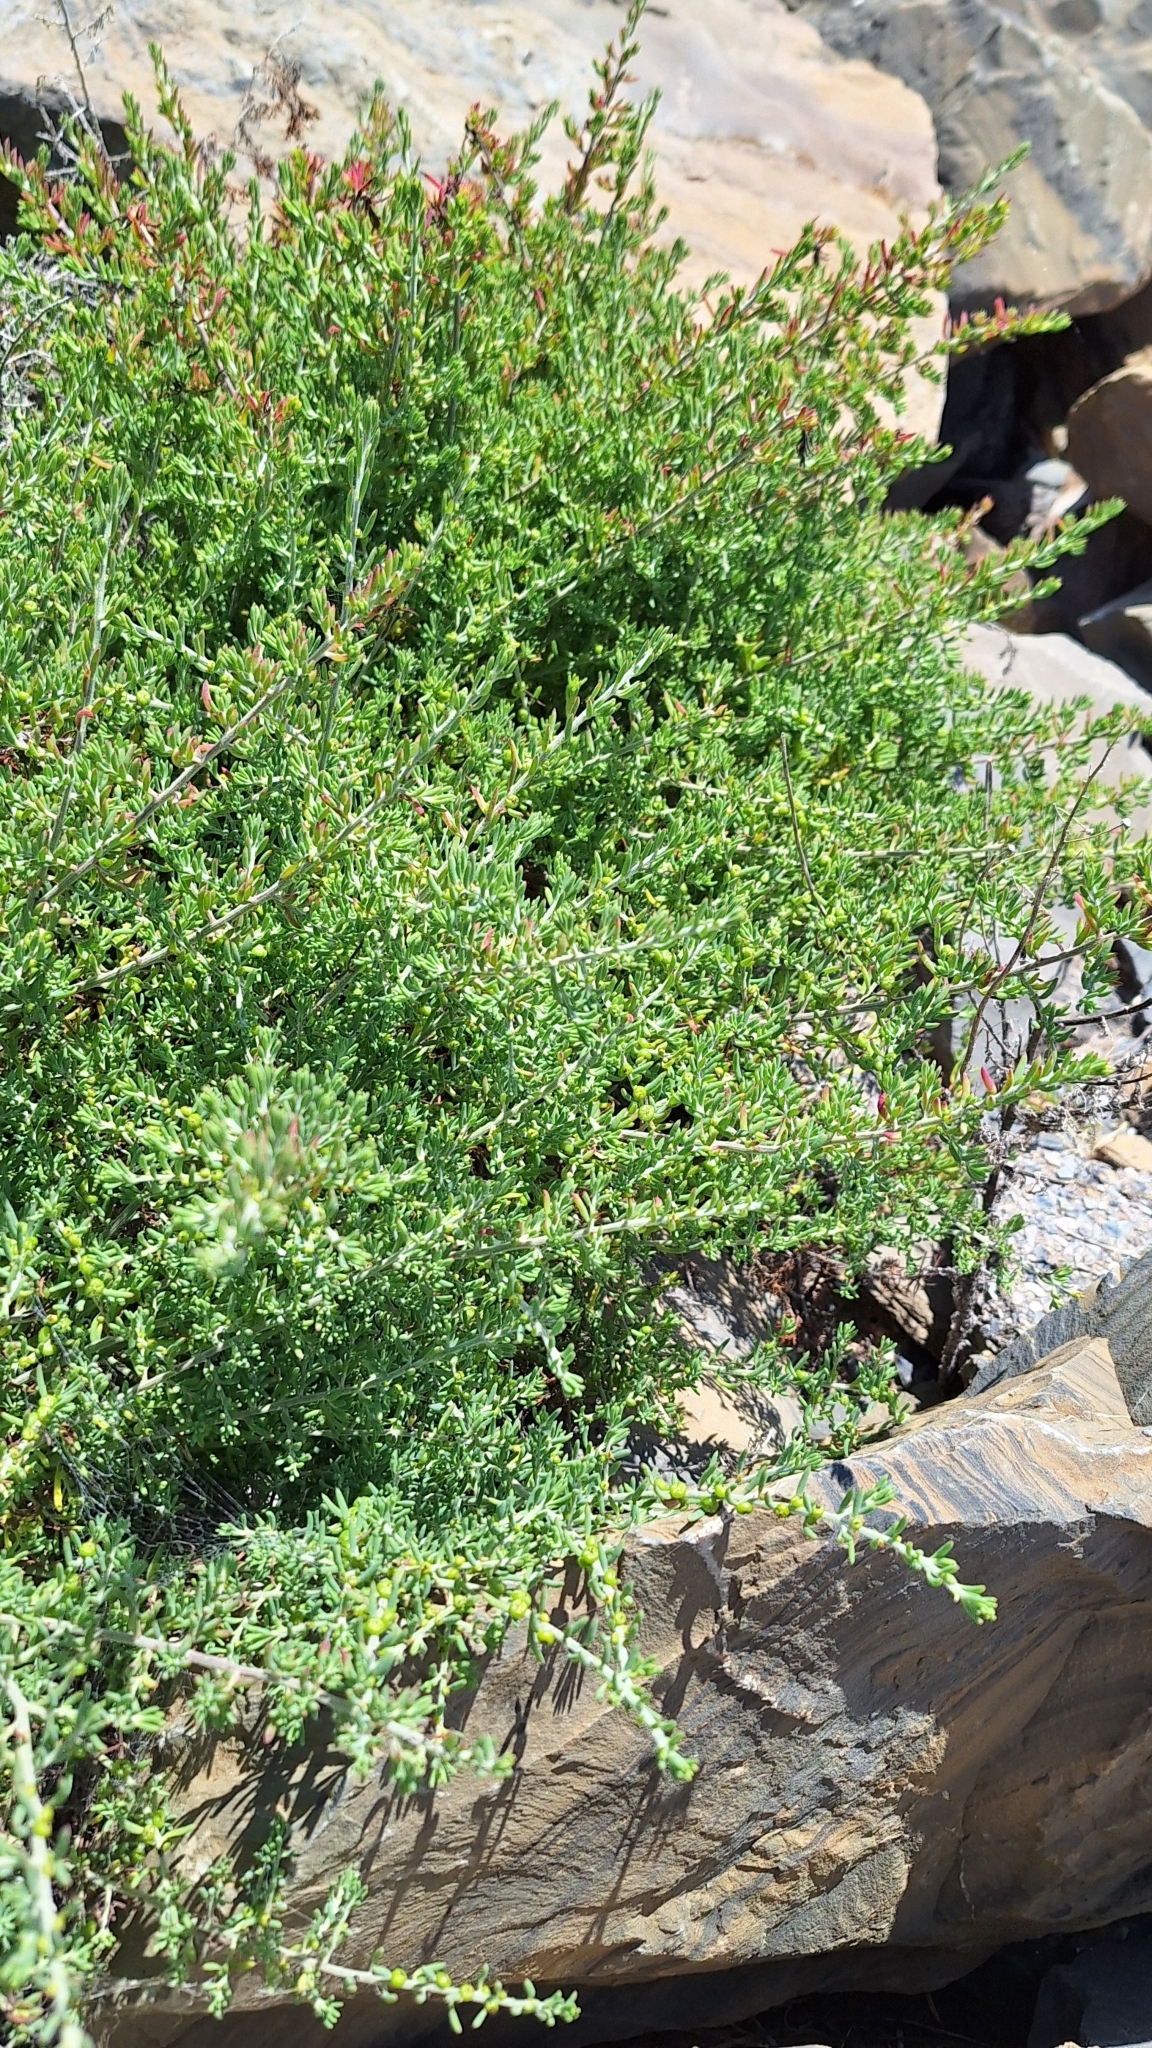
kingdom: Plantae
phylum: Tracheophyta
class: Magnoliopsida
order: Caryophyllales
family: Amaranthaceae
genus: Enchylaena
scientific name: Enchylaena tomentosa
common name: Ruby saltbush
